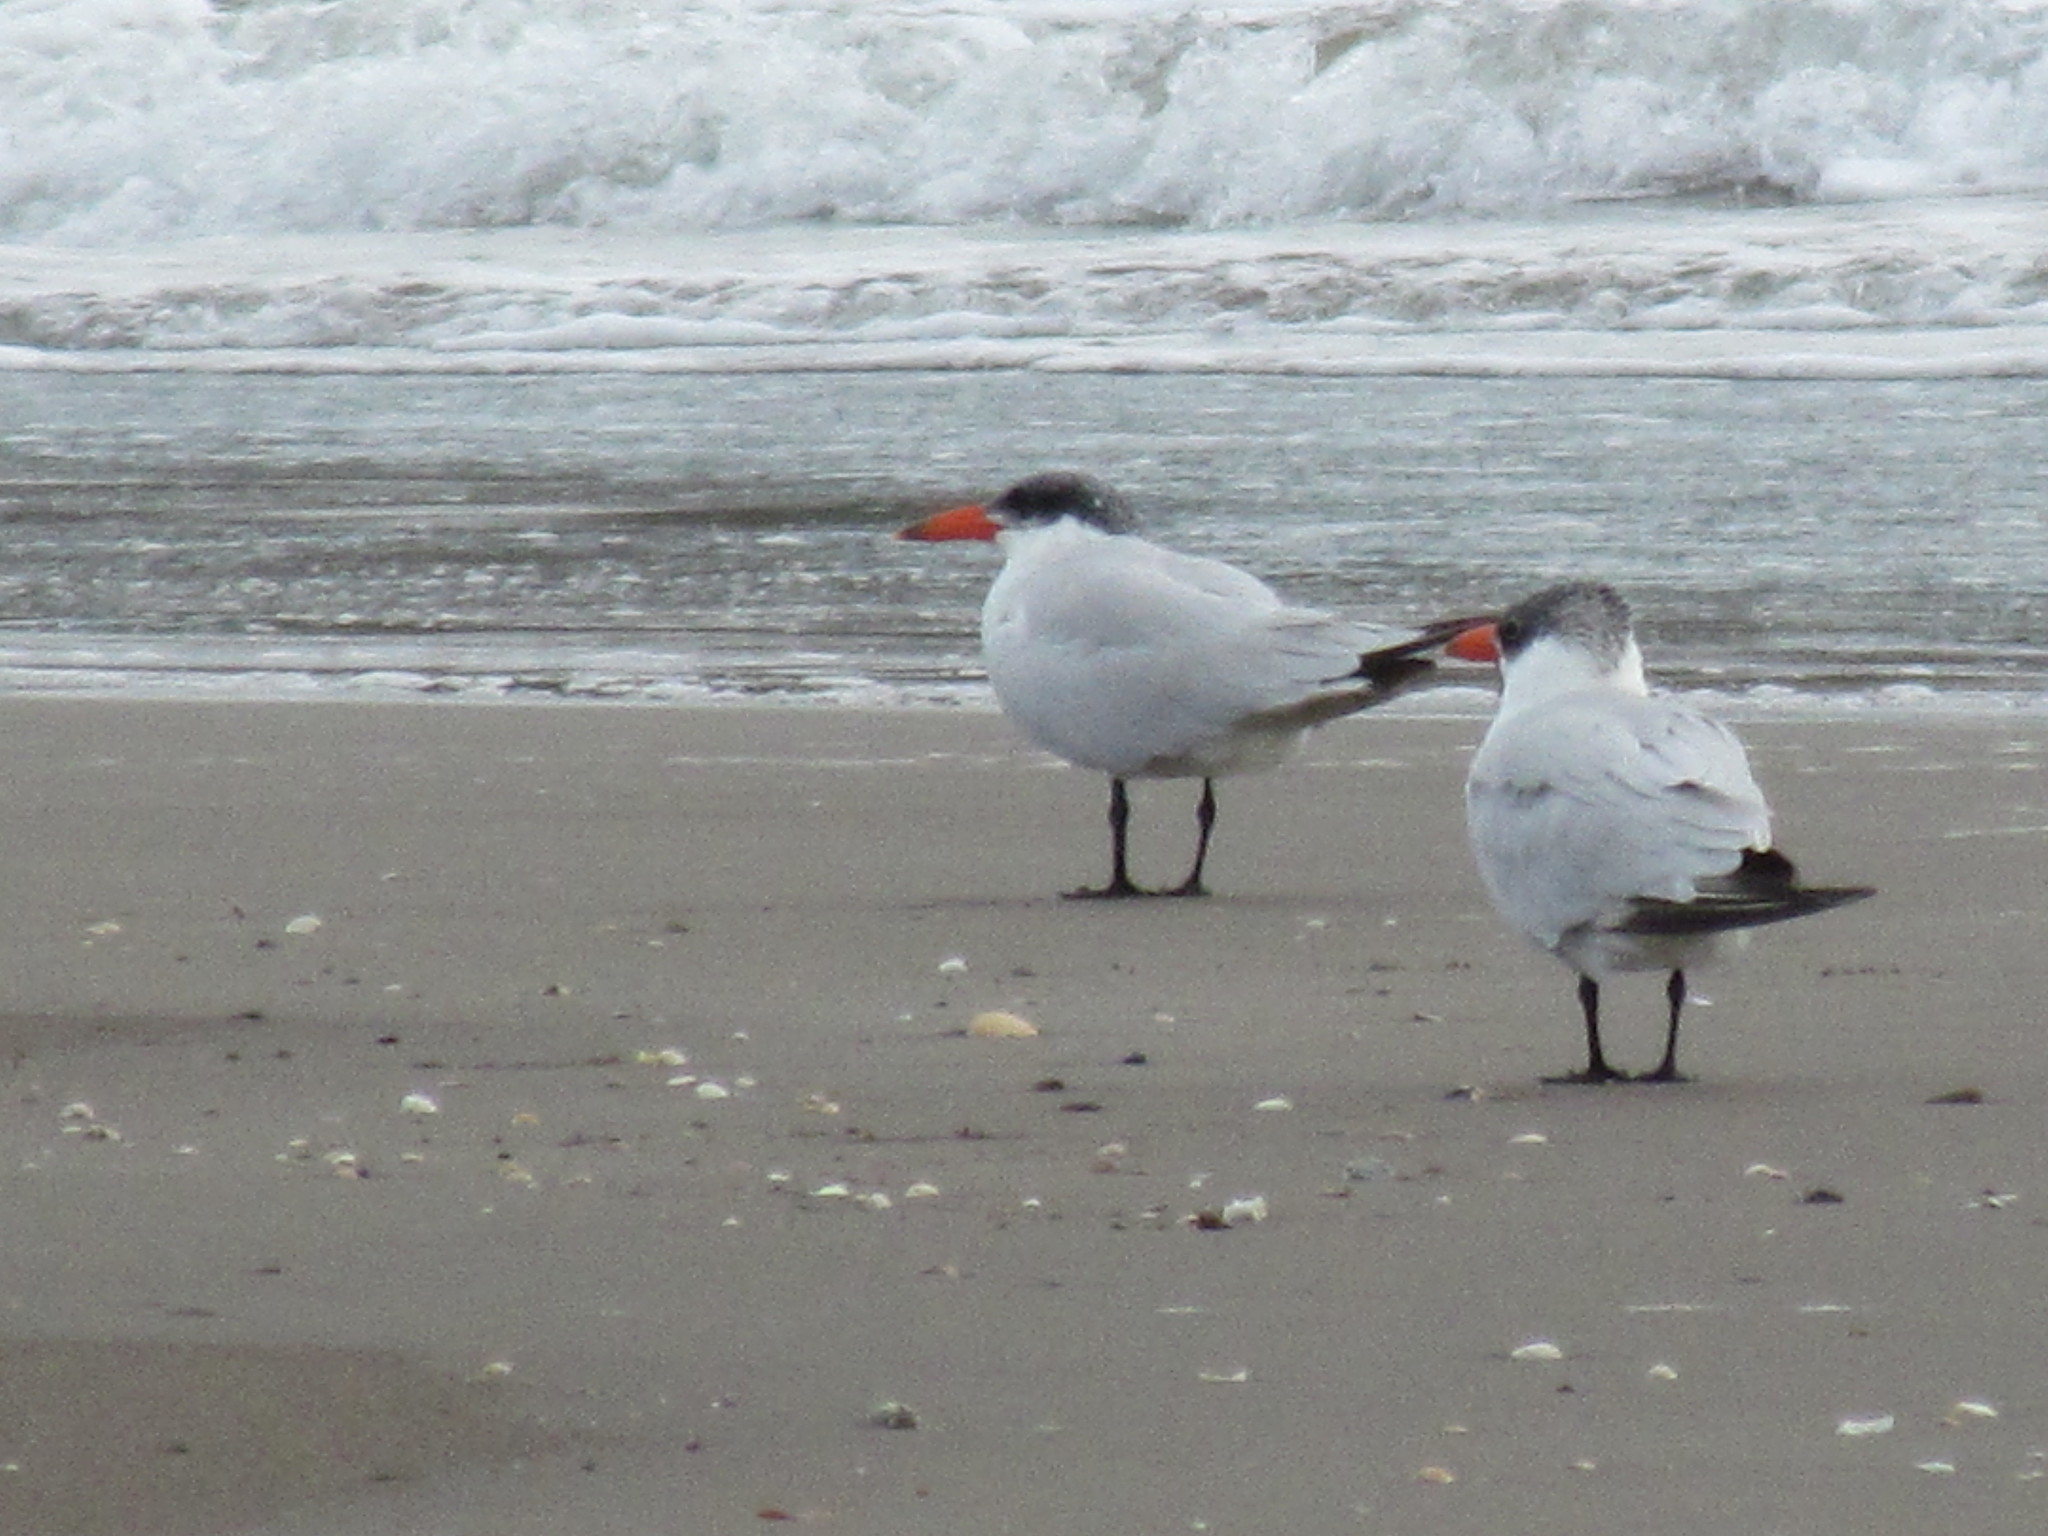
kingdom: Animalia
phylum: Chordata
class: Aves
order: Charadriiformes
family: Laridae
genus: Hydroprogne
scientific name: Hydroprogne caspia
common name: Caspian tern
